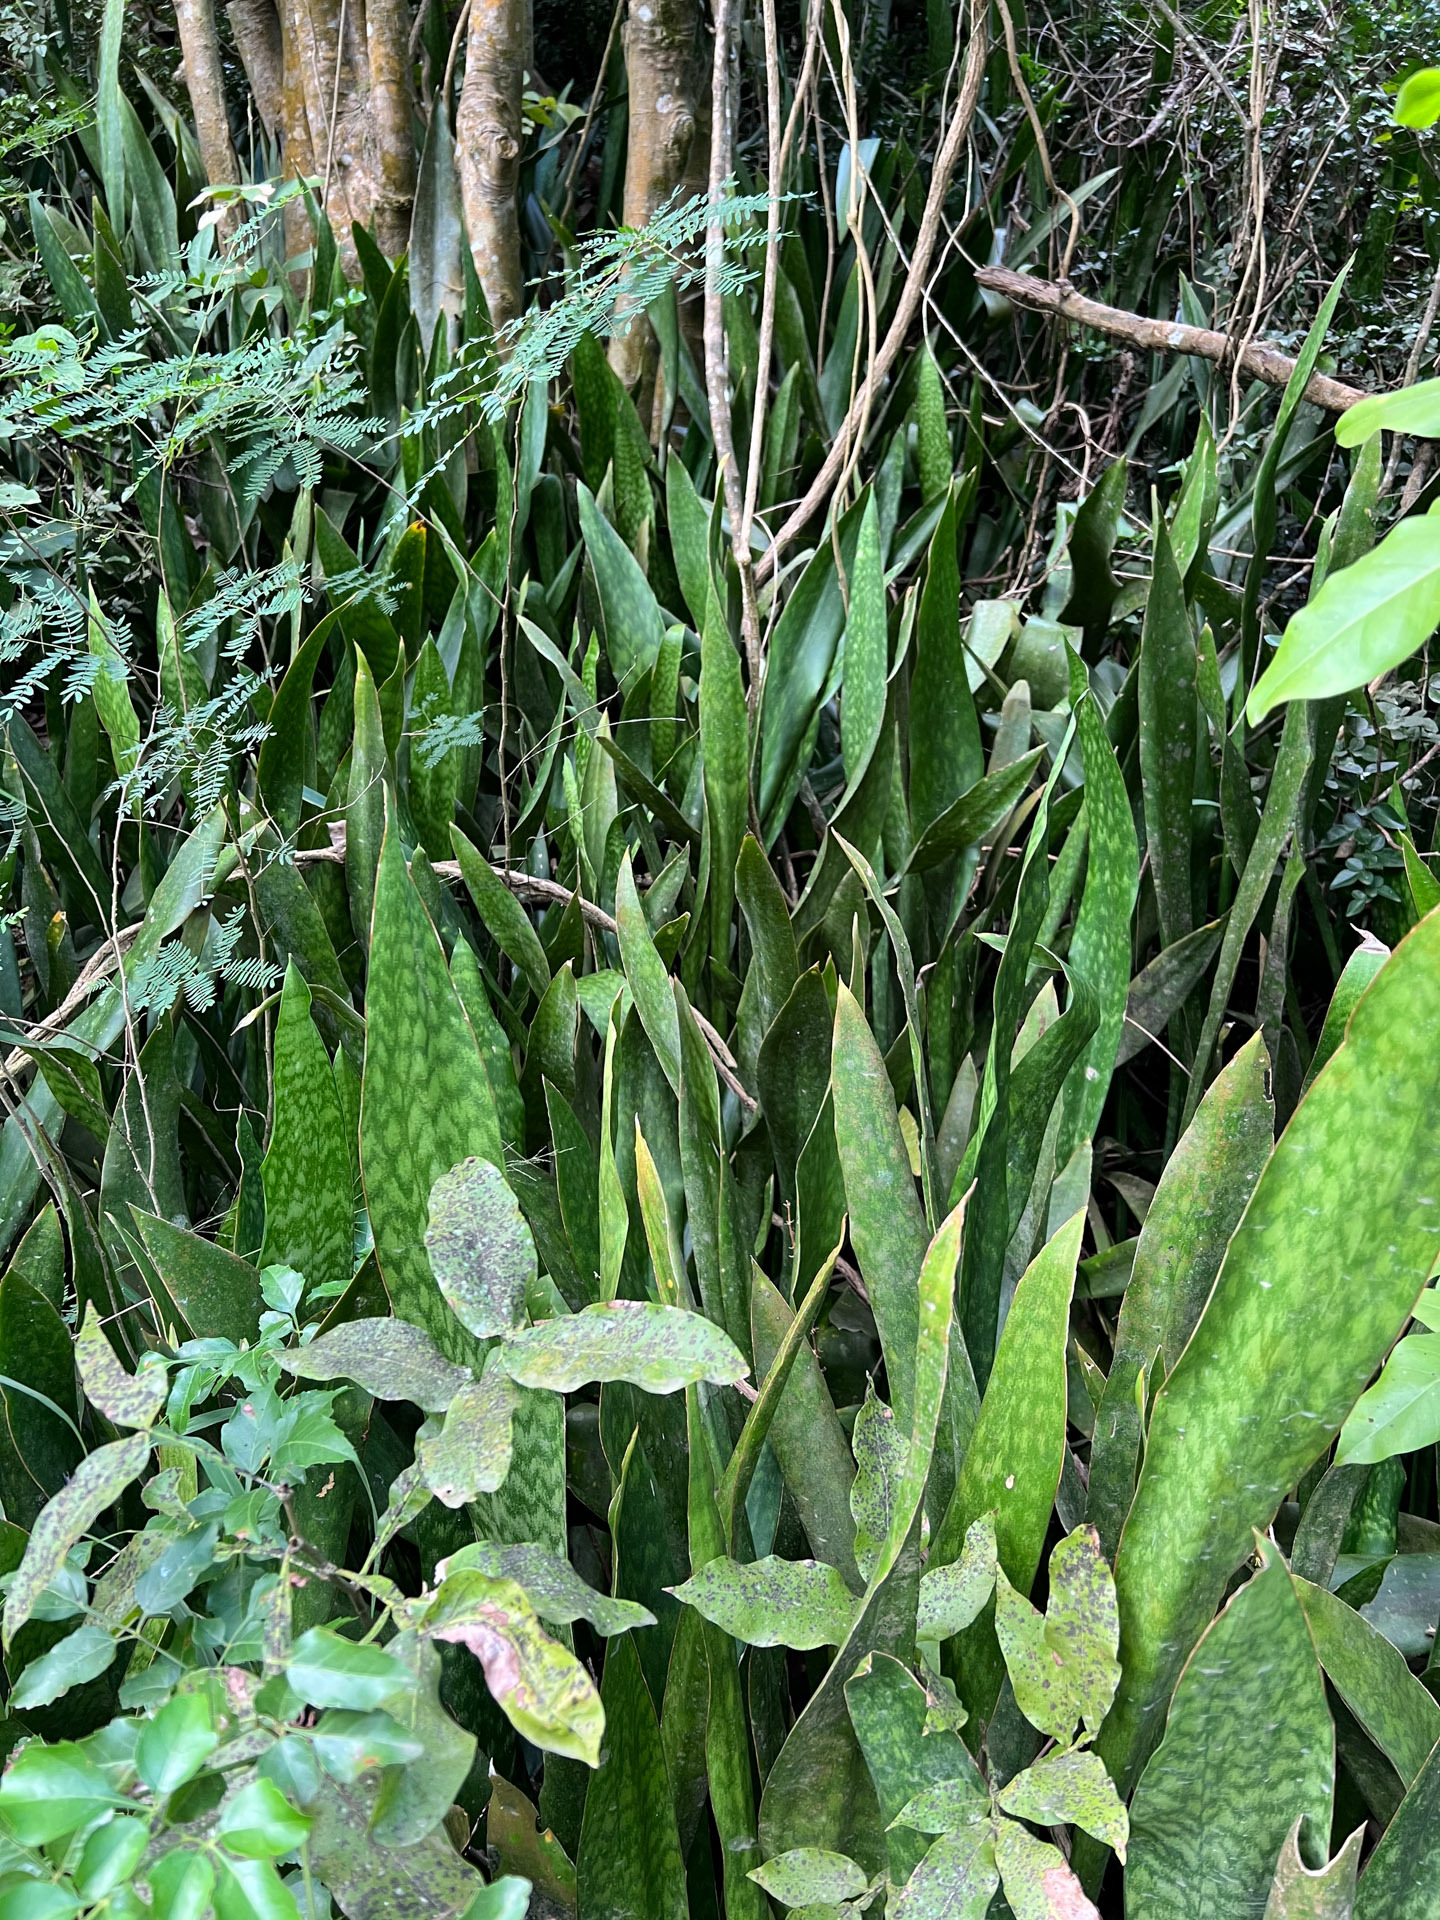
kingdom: Plantae
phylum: Tracheophyta
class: Liliopsida
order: Asparagales
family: Asparagaceae
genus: Dracaena
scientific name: Dracaena hyacinthoides
